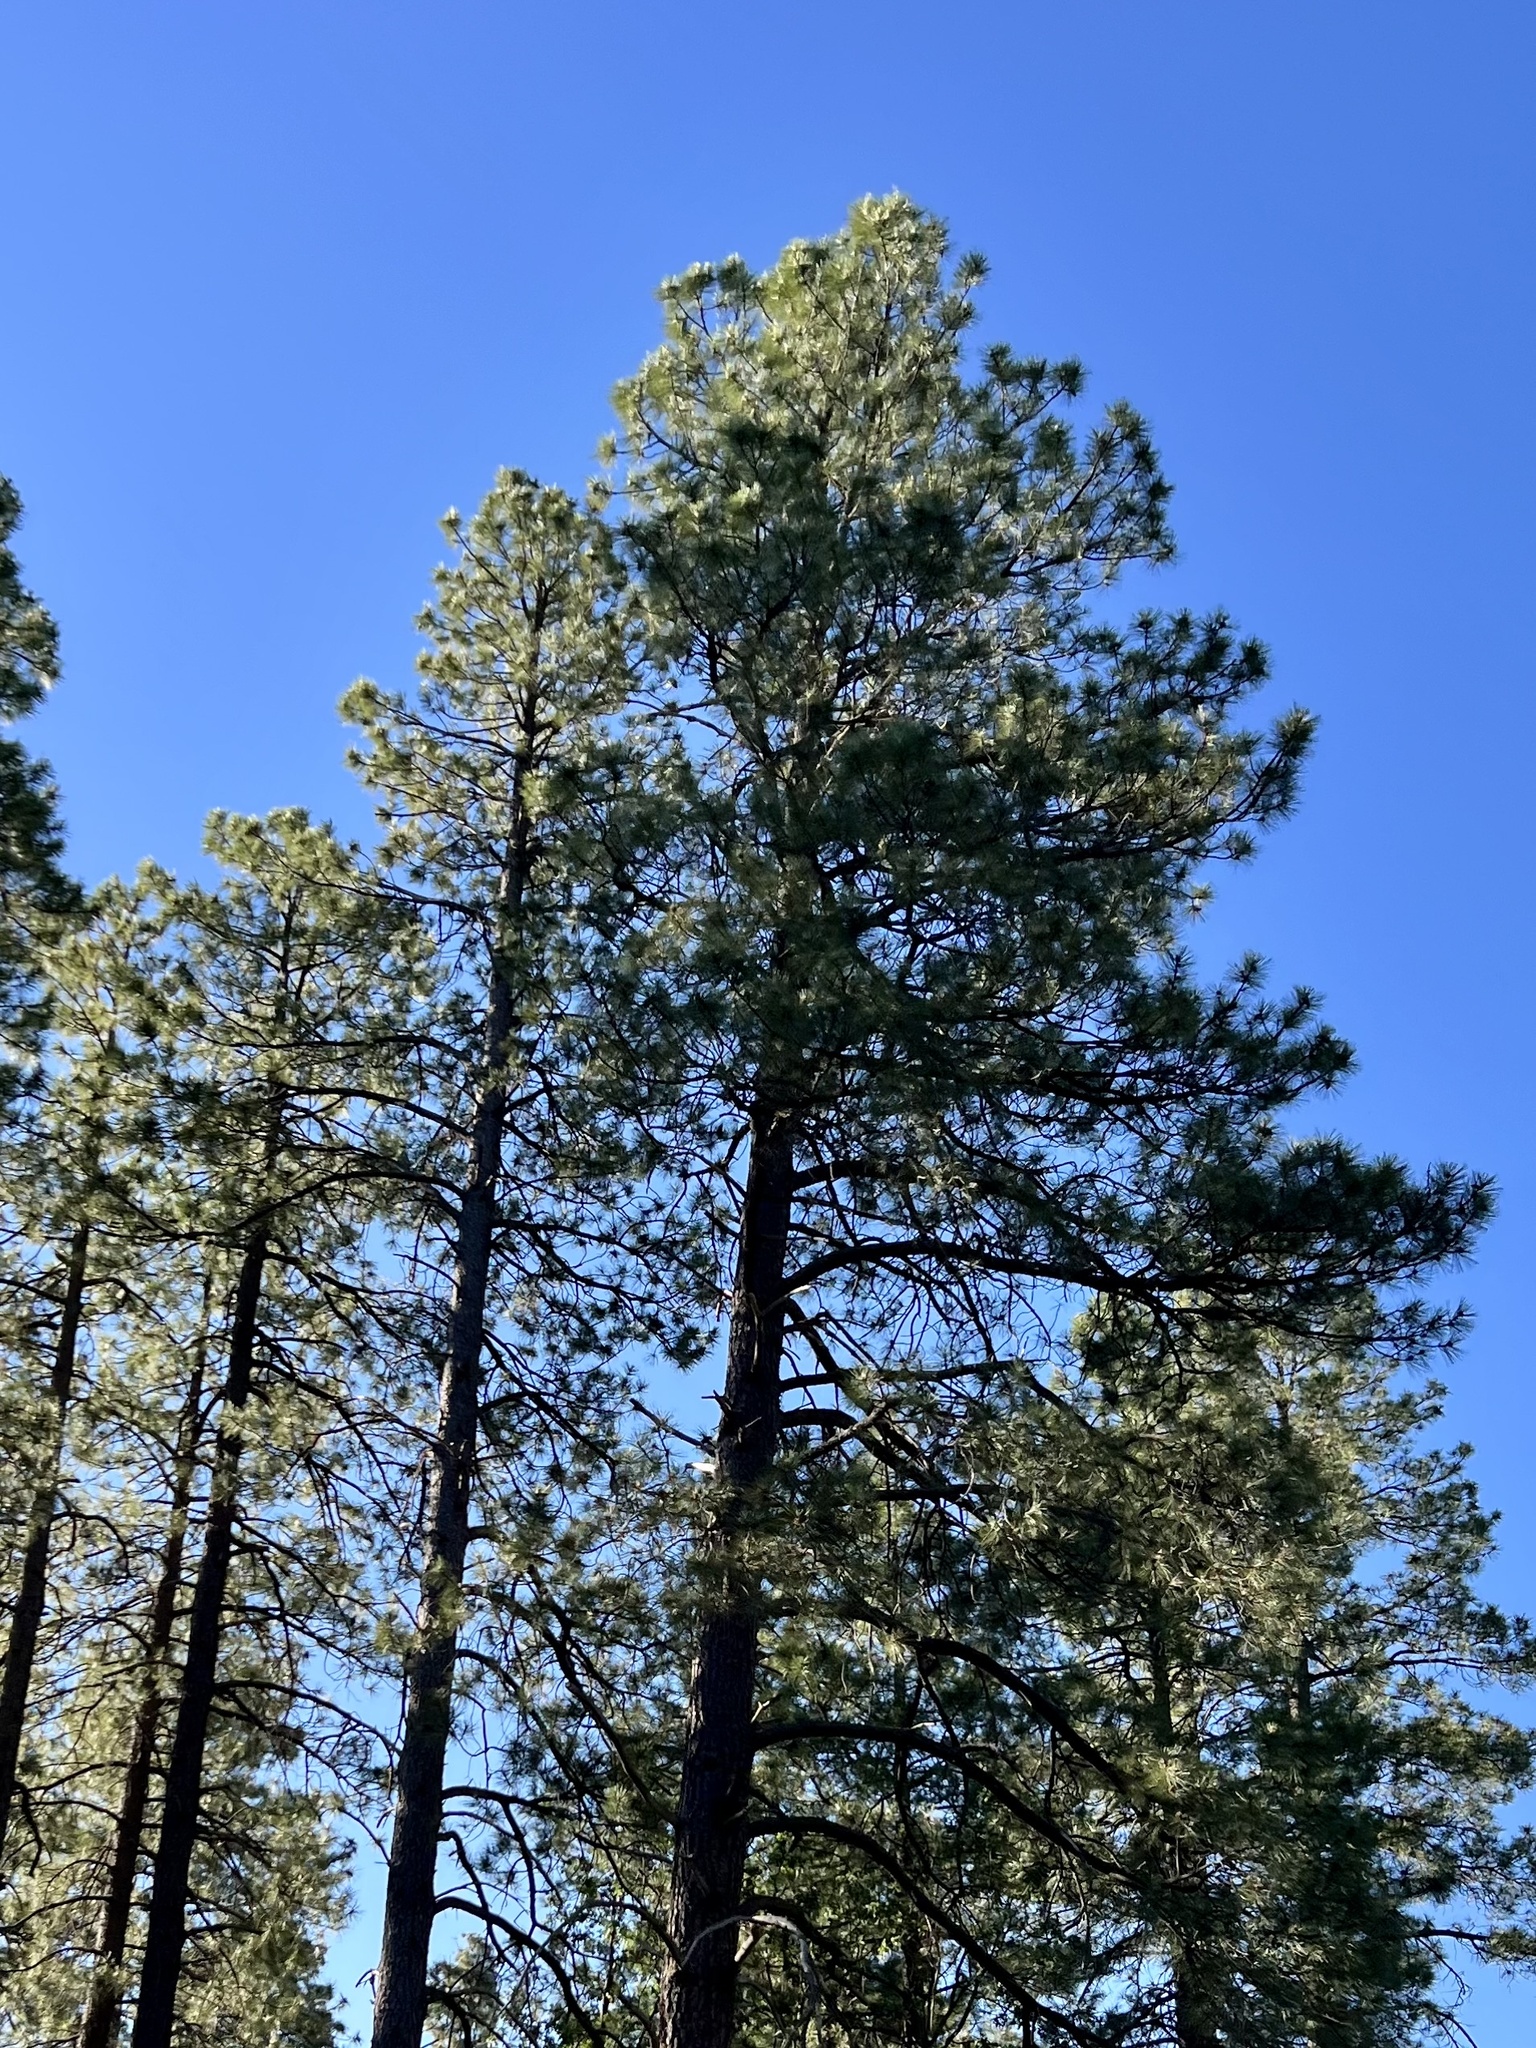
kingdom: Plantae
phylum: Tracheophyta
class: Pinopsida
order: Pinales
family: Pinaceae
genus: Pinus
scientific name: Pinus ponderosa
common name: Western yellow-pine
